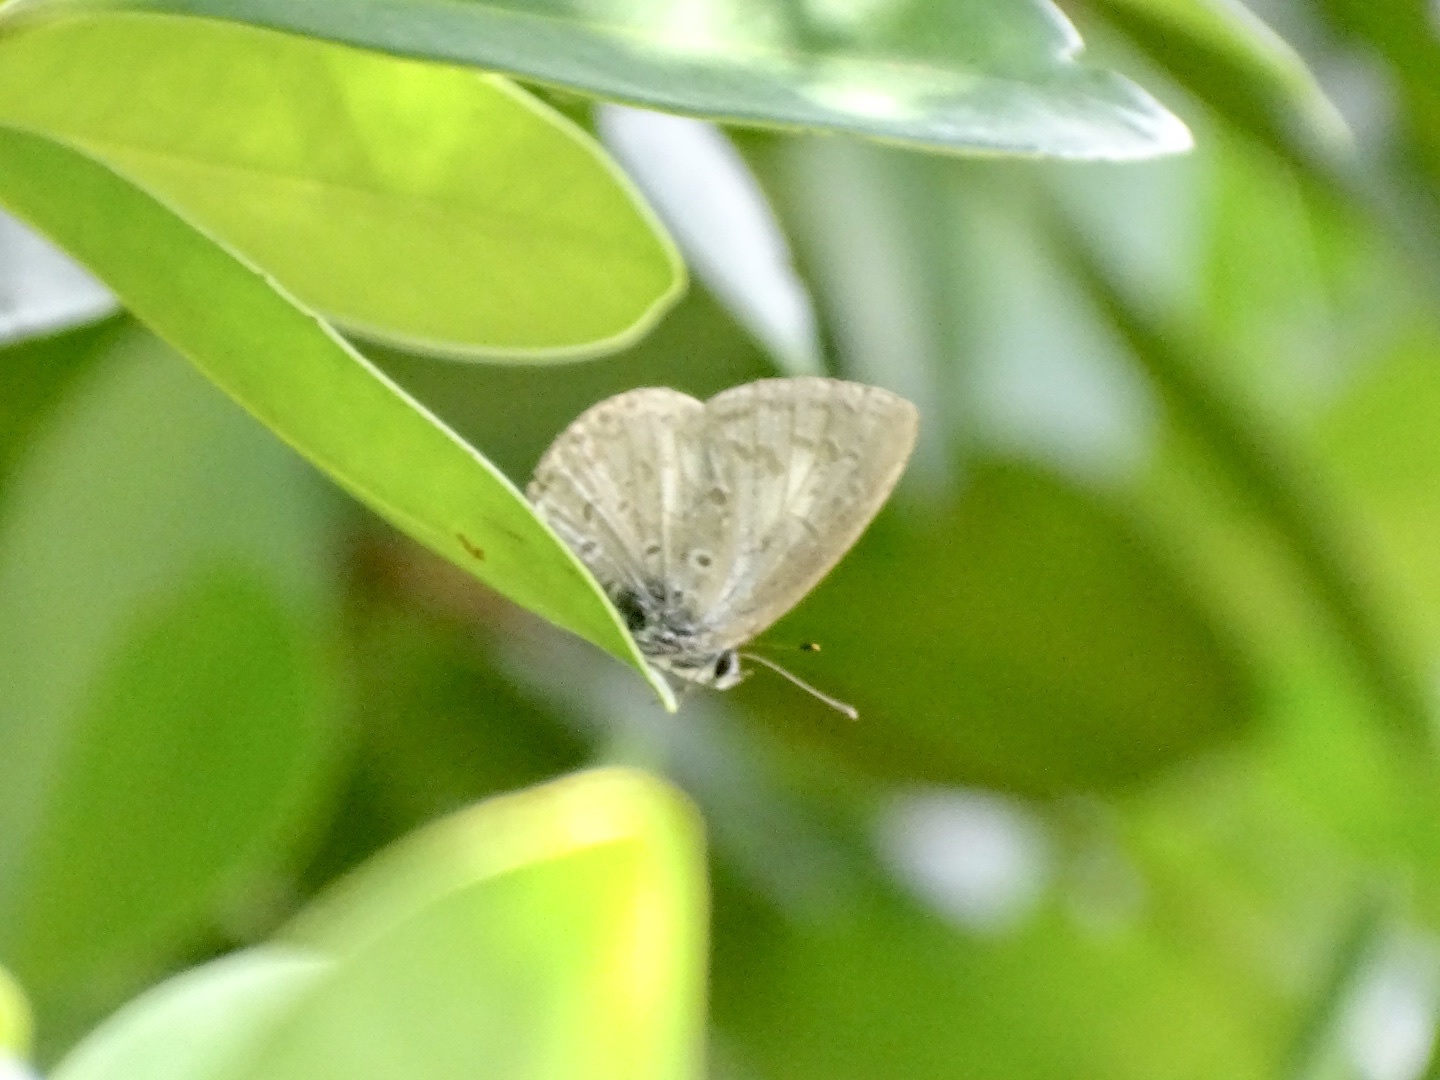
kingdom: Animalia
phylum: Arthropoda
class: Insecta
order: Lepidoptera
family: Lycaenidae
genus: Acytolepis
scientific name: Acytolepis puspa
